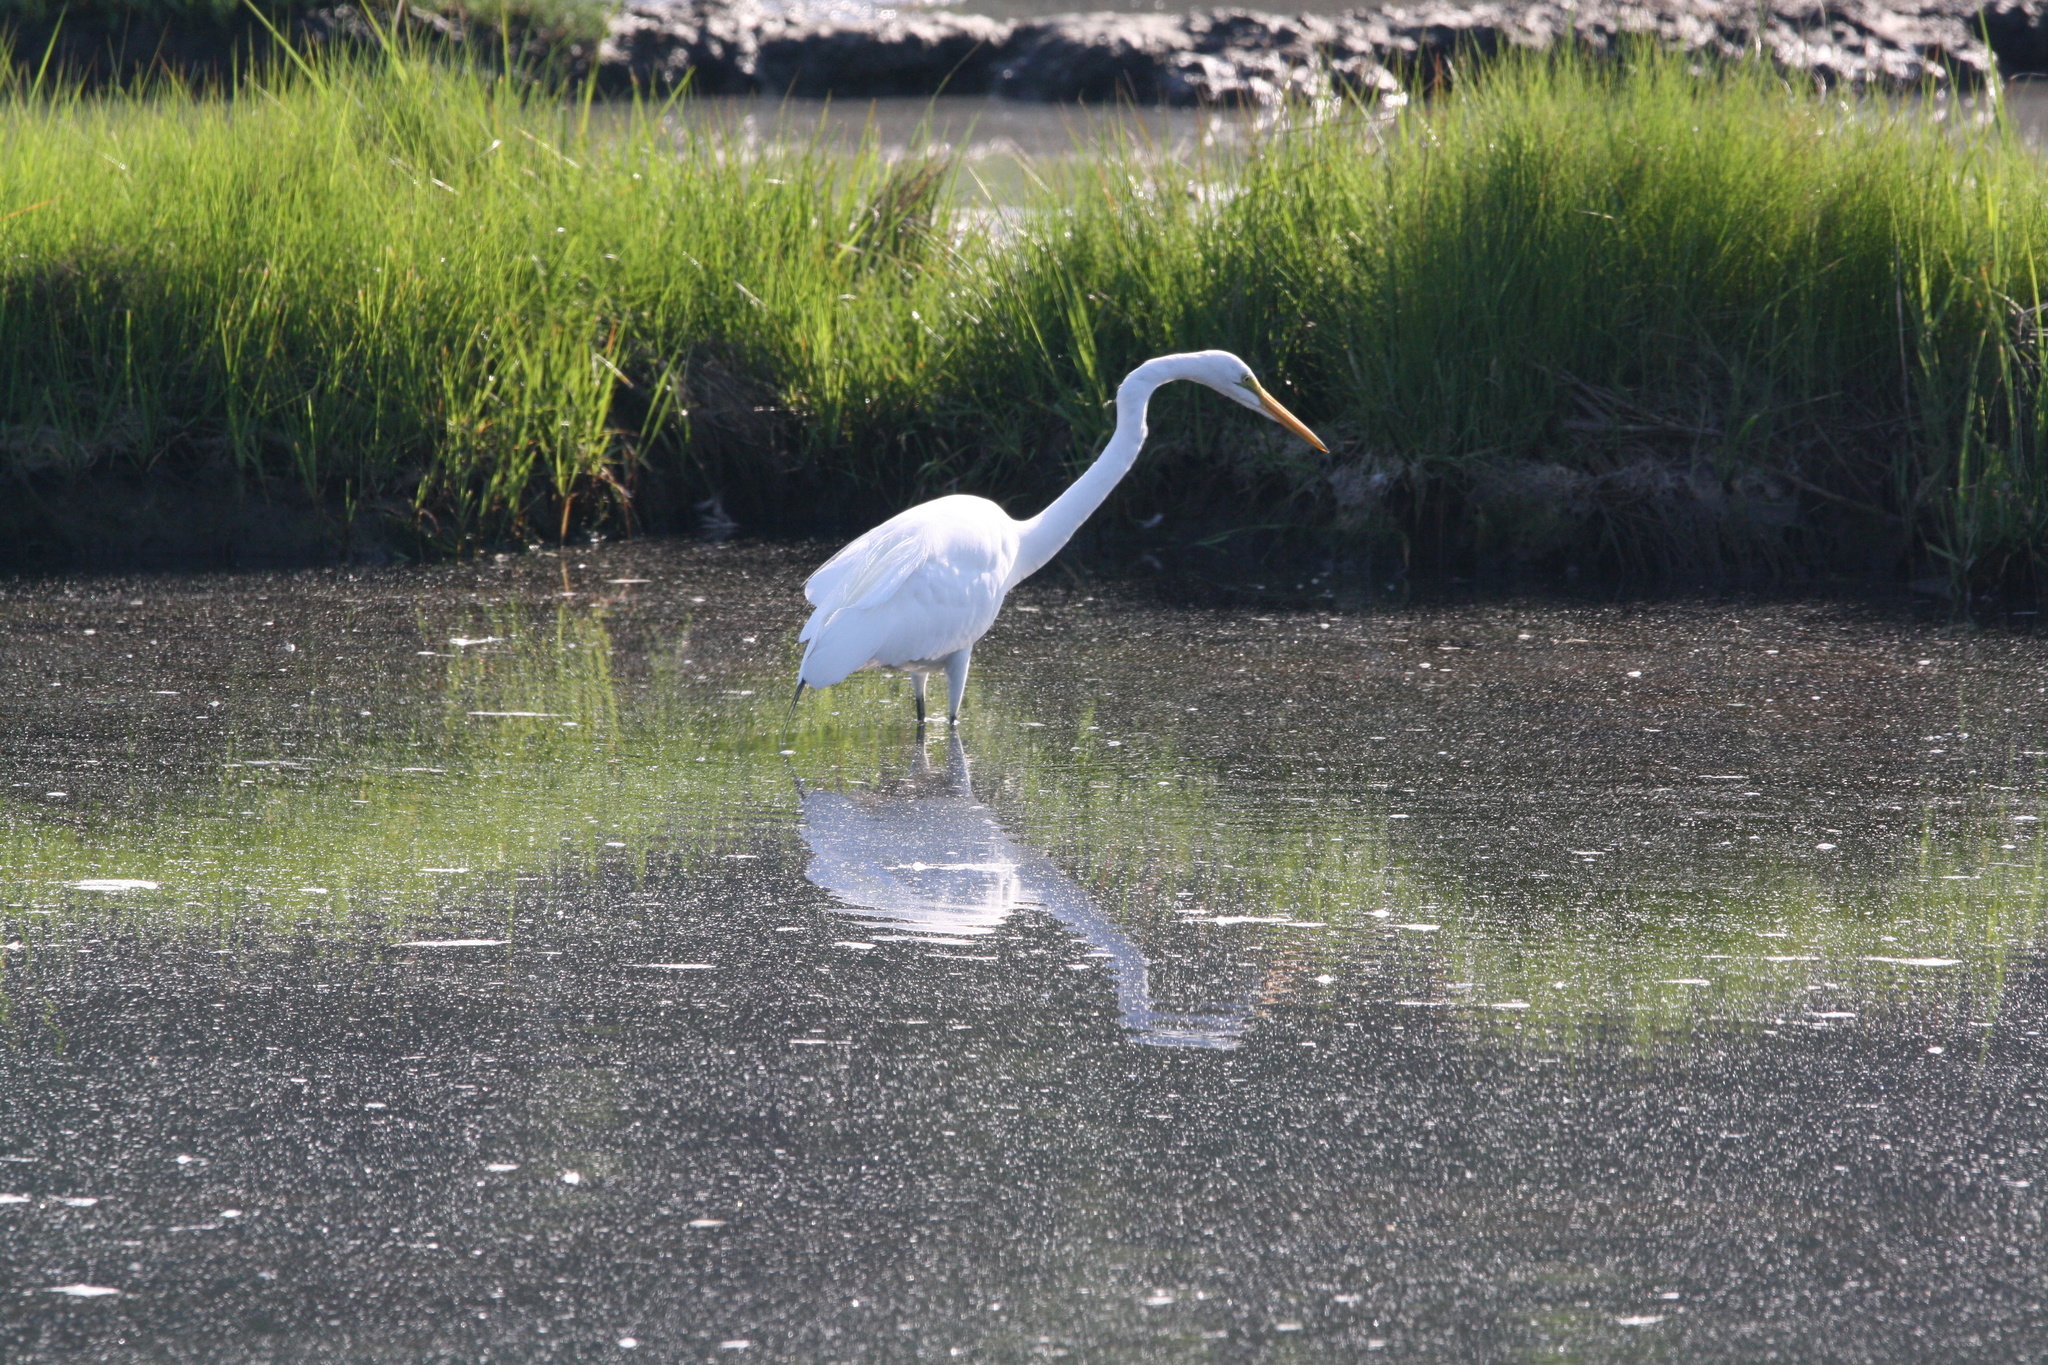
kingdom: Animalia
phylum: Chordata
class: Aves
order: Pelecaniformes
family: Ardeidae
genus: Ardea
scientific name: Ardea alba
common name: Great egret
